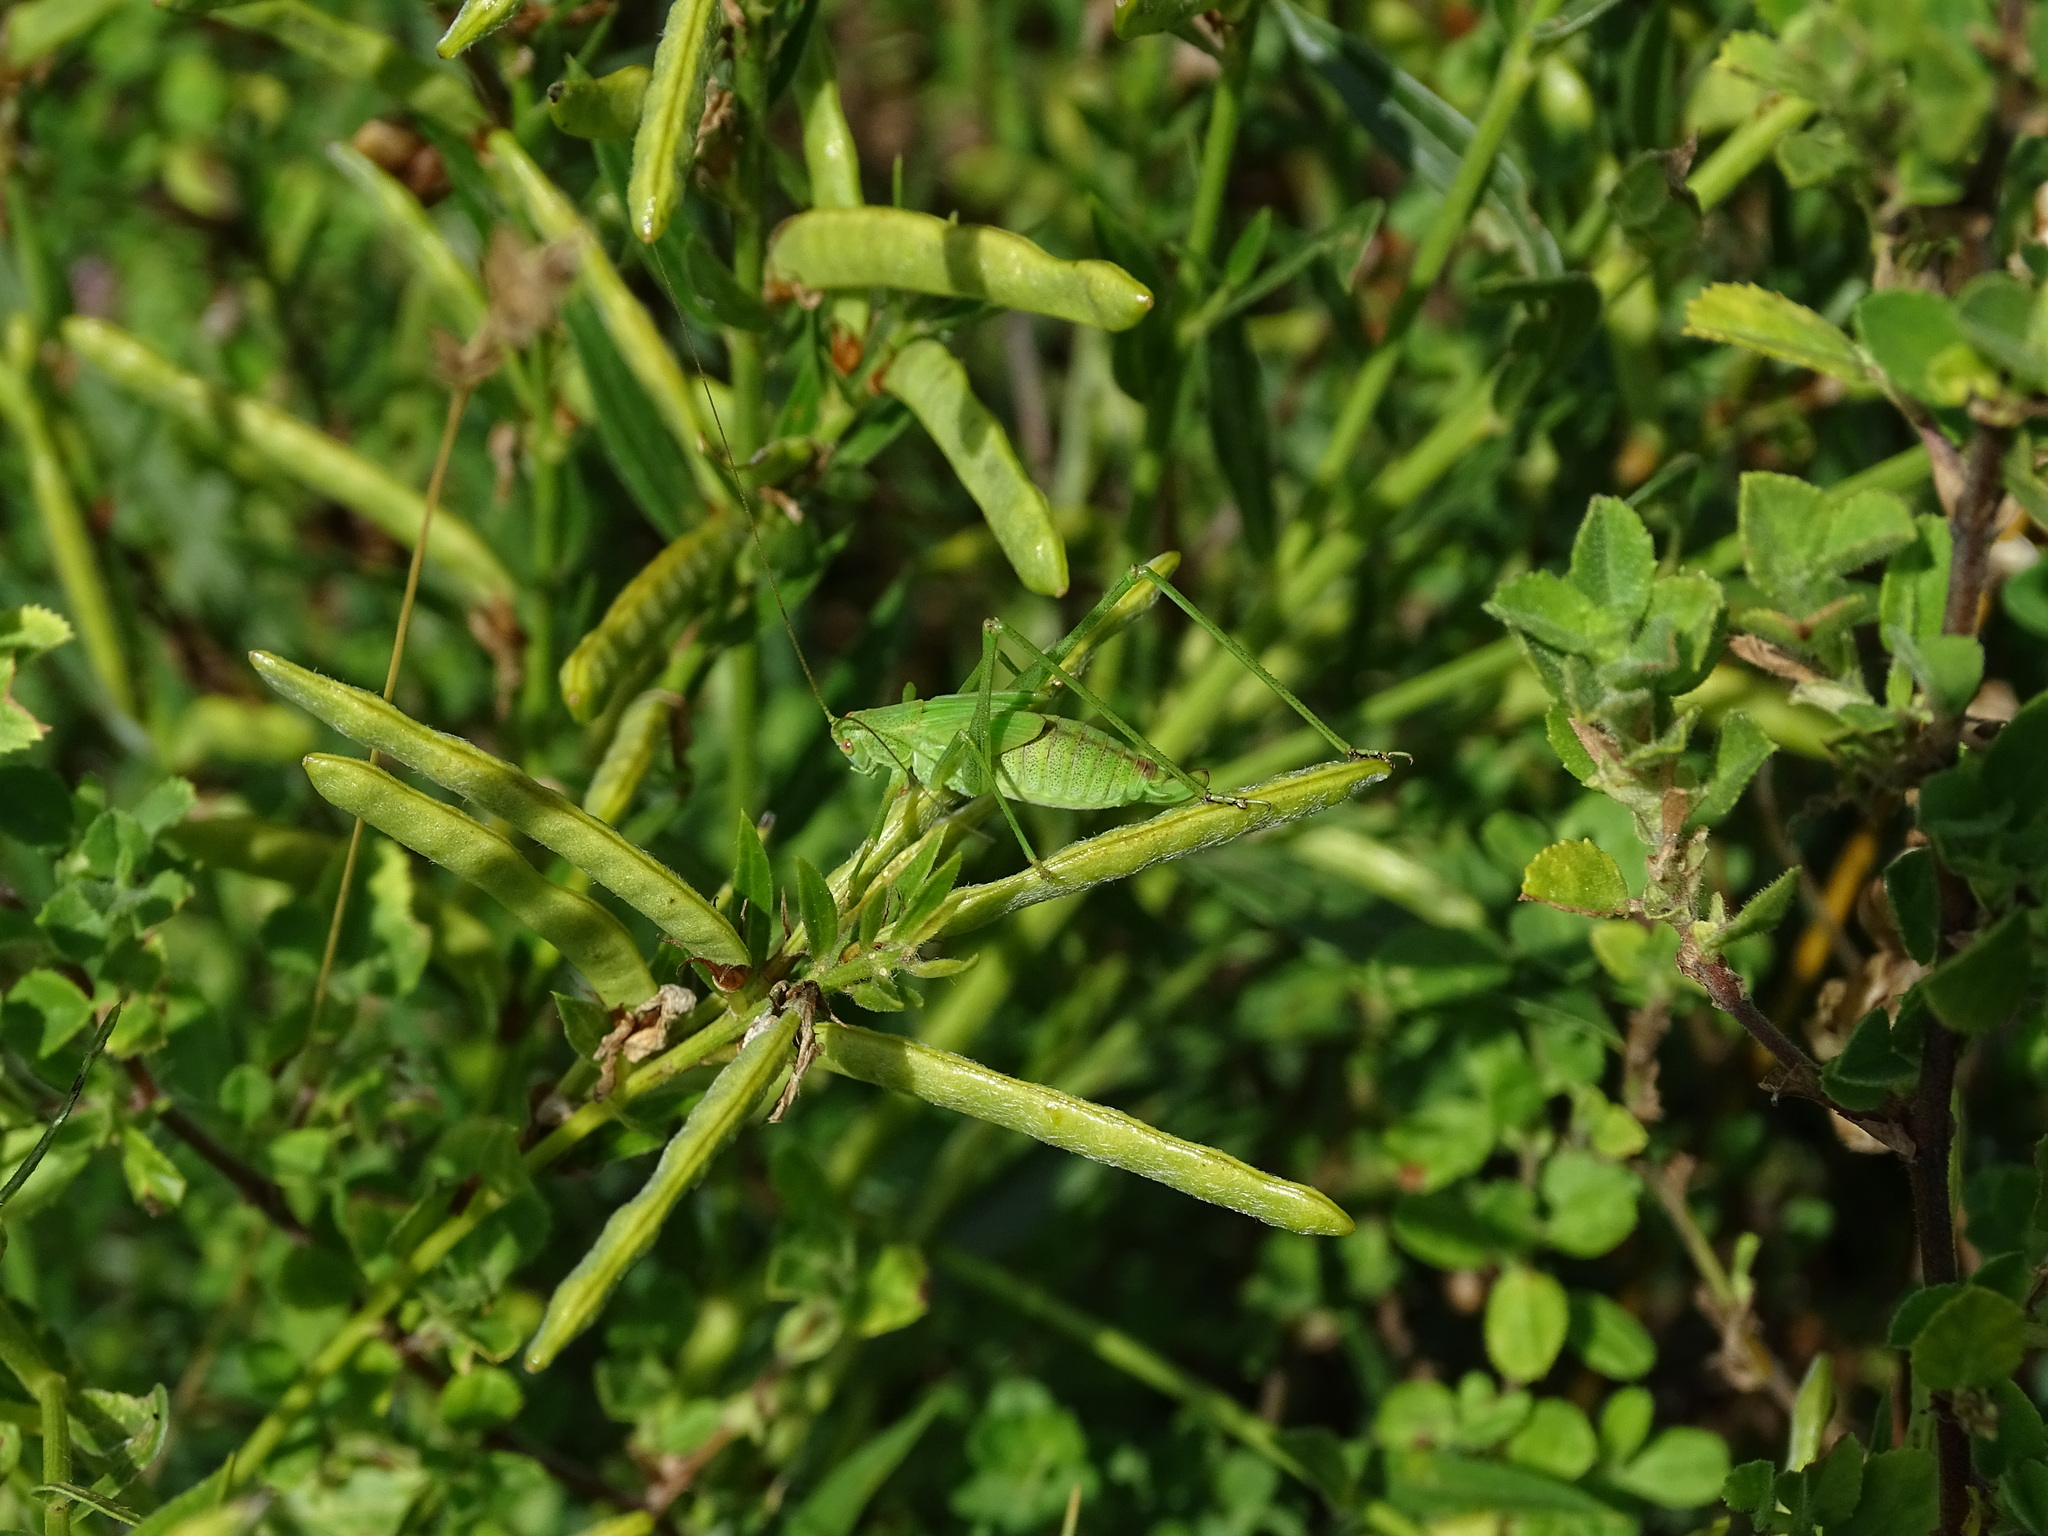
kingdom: Animalia
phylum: Arthropoda
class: Insecta
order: Orthoptera
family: Tettigoniidae
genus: Phaneroptera
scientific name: Phaneroptera falcata
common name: Sickle-bearing bush-cricket
